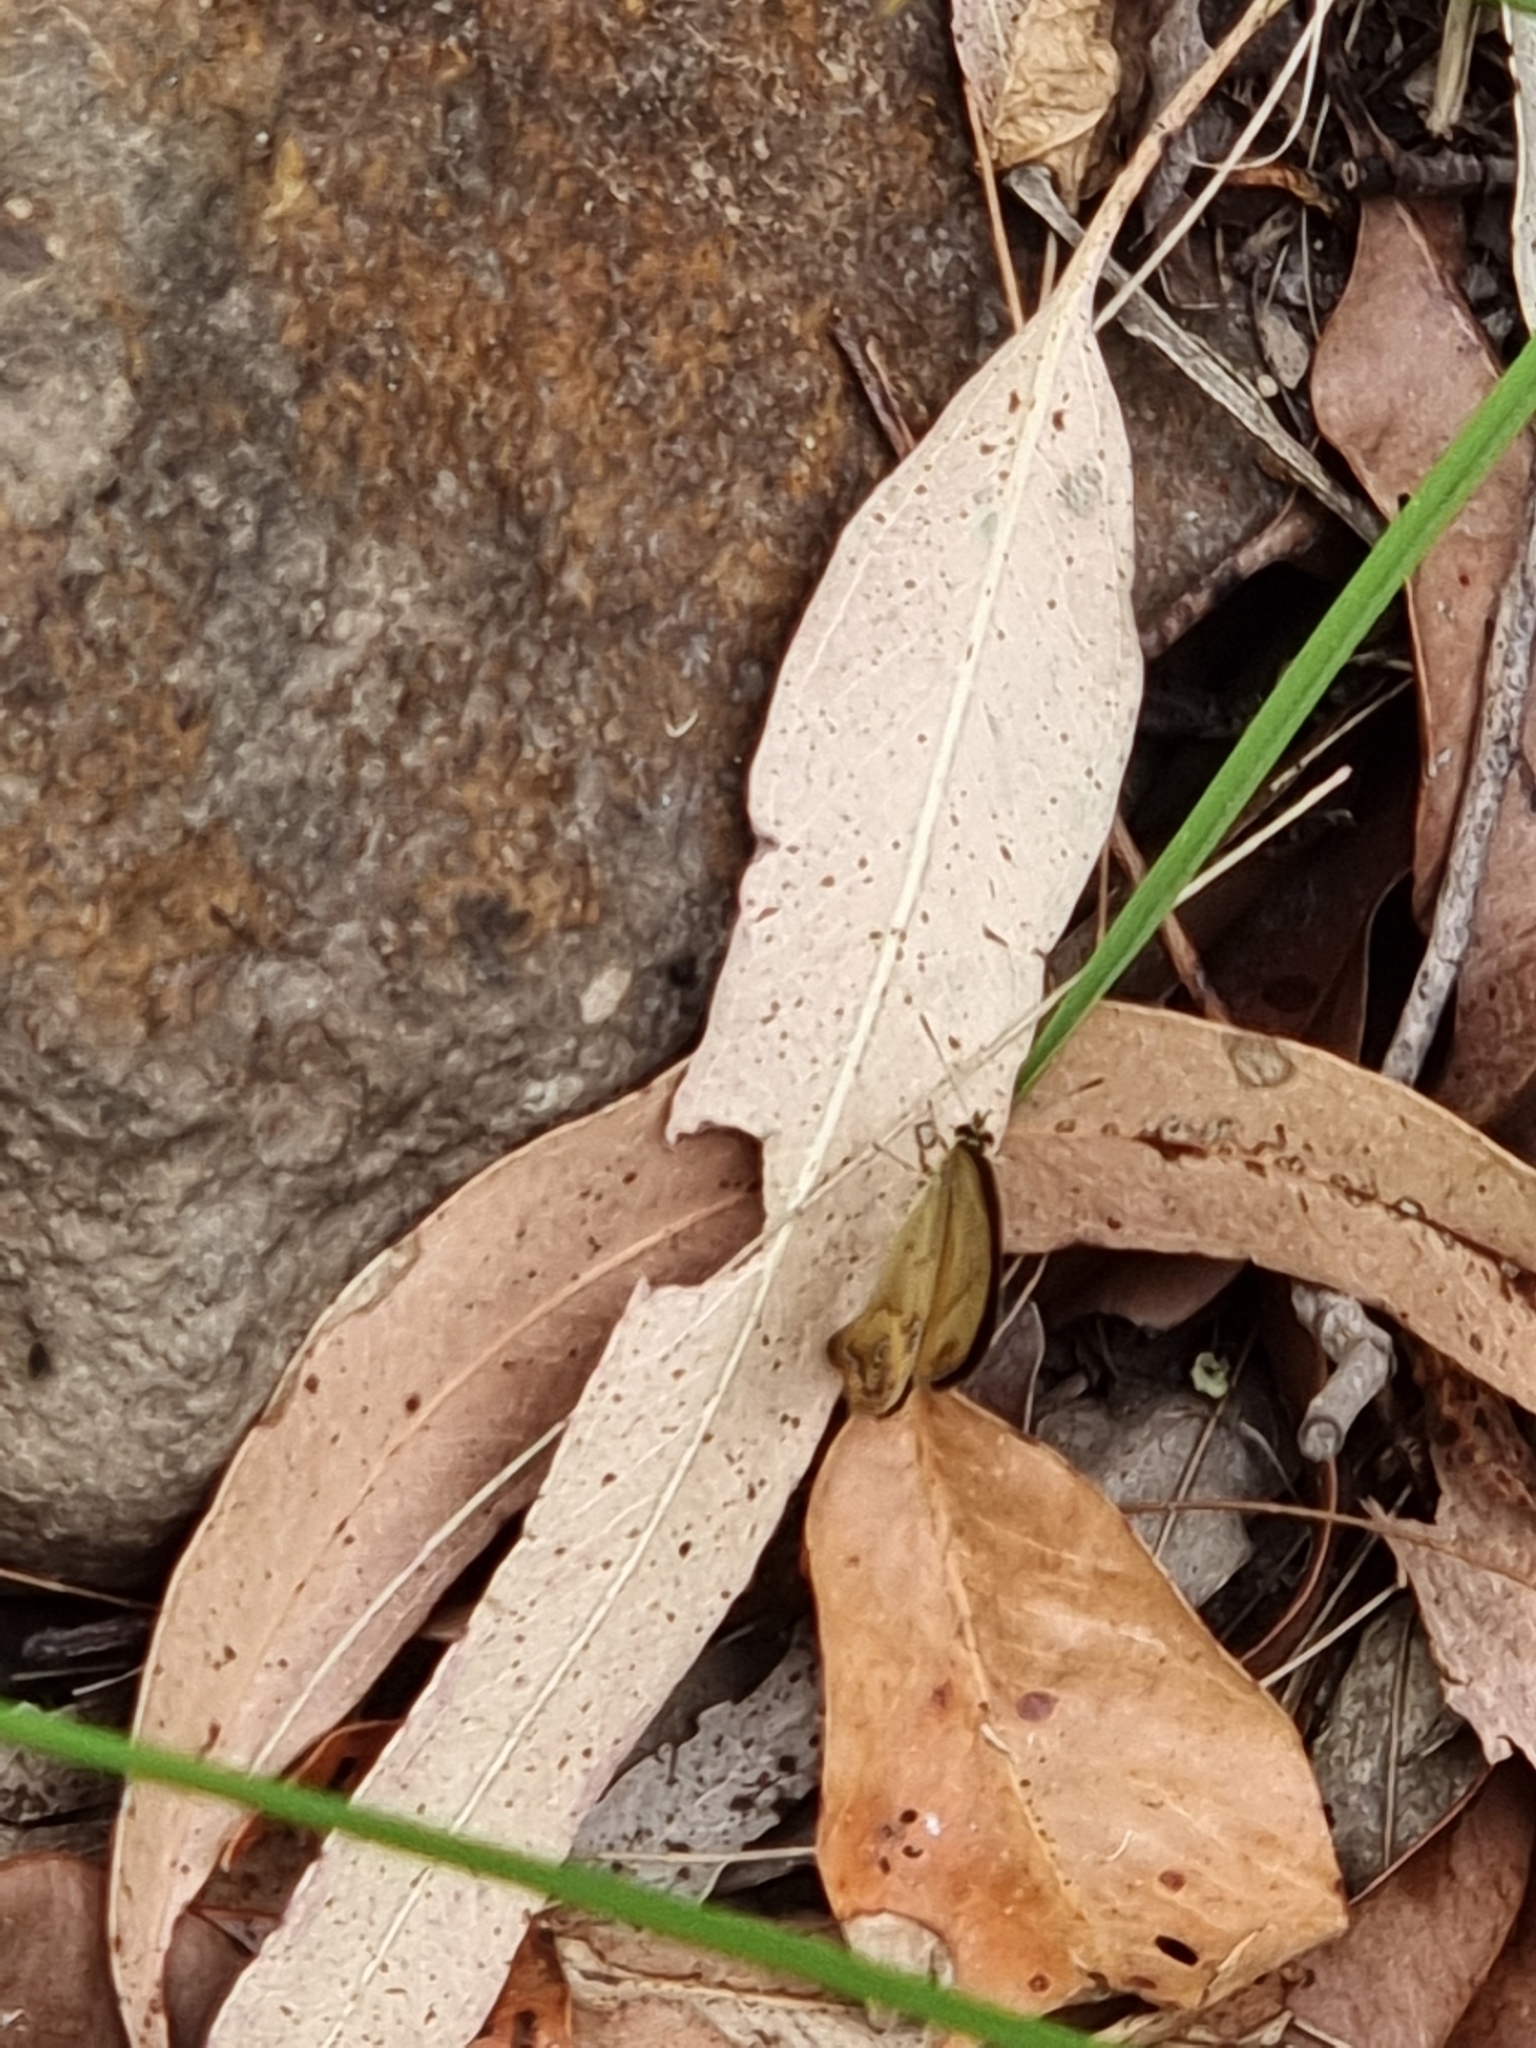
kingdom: Animalia
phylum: Arthropoda
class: Insecta
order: Lepidoptera
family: Nymphalidae
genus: Hypocysta
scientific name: Hypocysta metirius
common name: Brown ringlet
